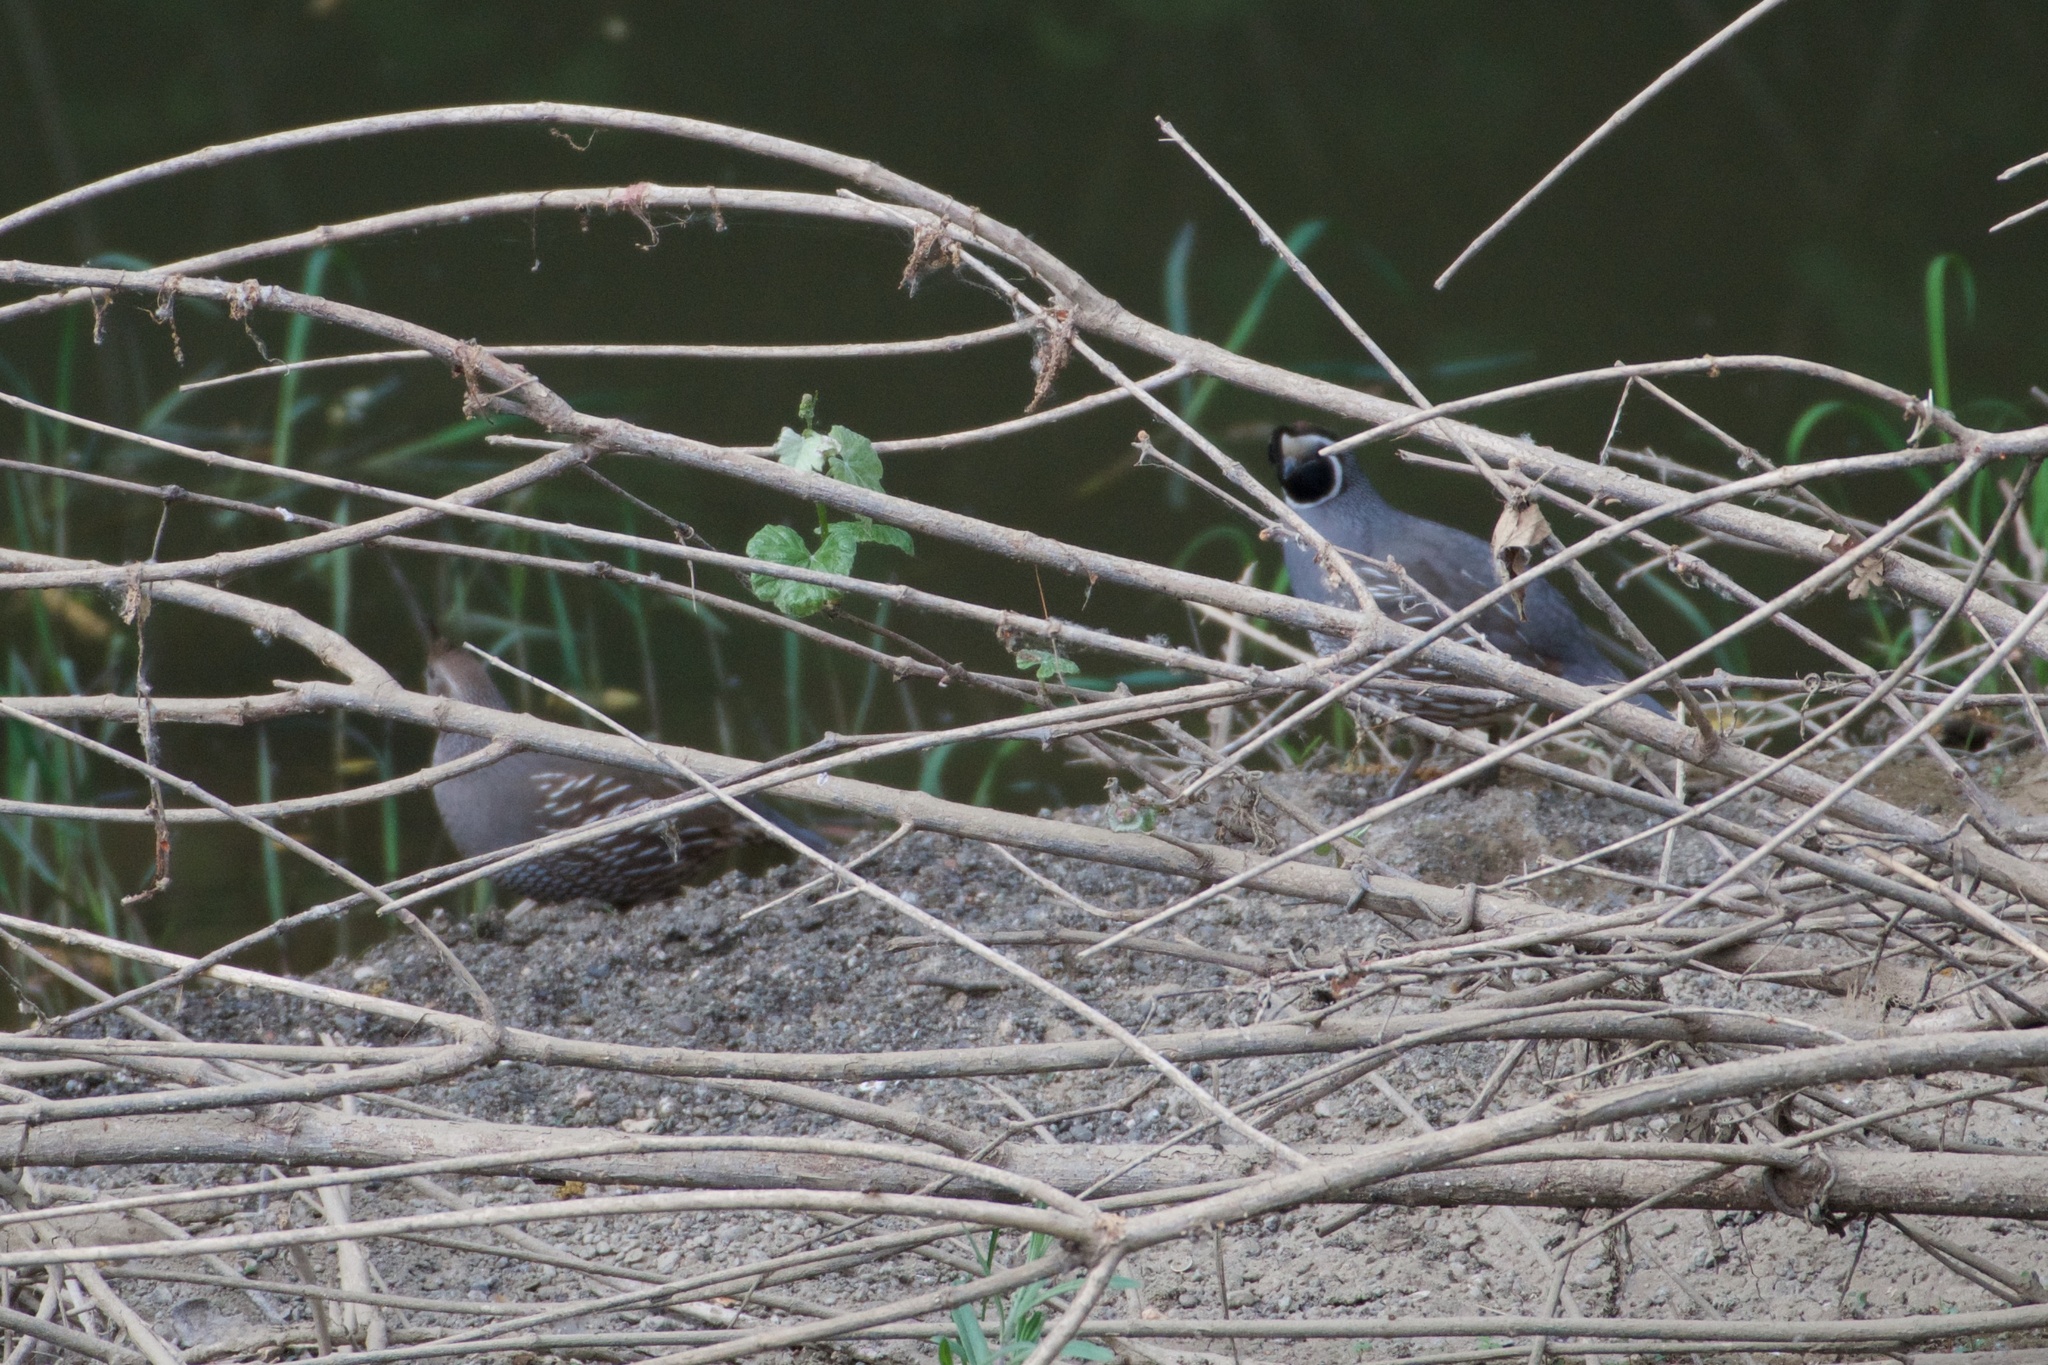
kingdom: Animalia
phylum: Chordata
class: Aves
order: Galliformes
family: Odontophoridae
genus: Callipepla
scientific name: Callipepla californica
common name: California quail
